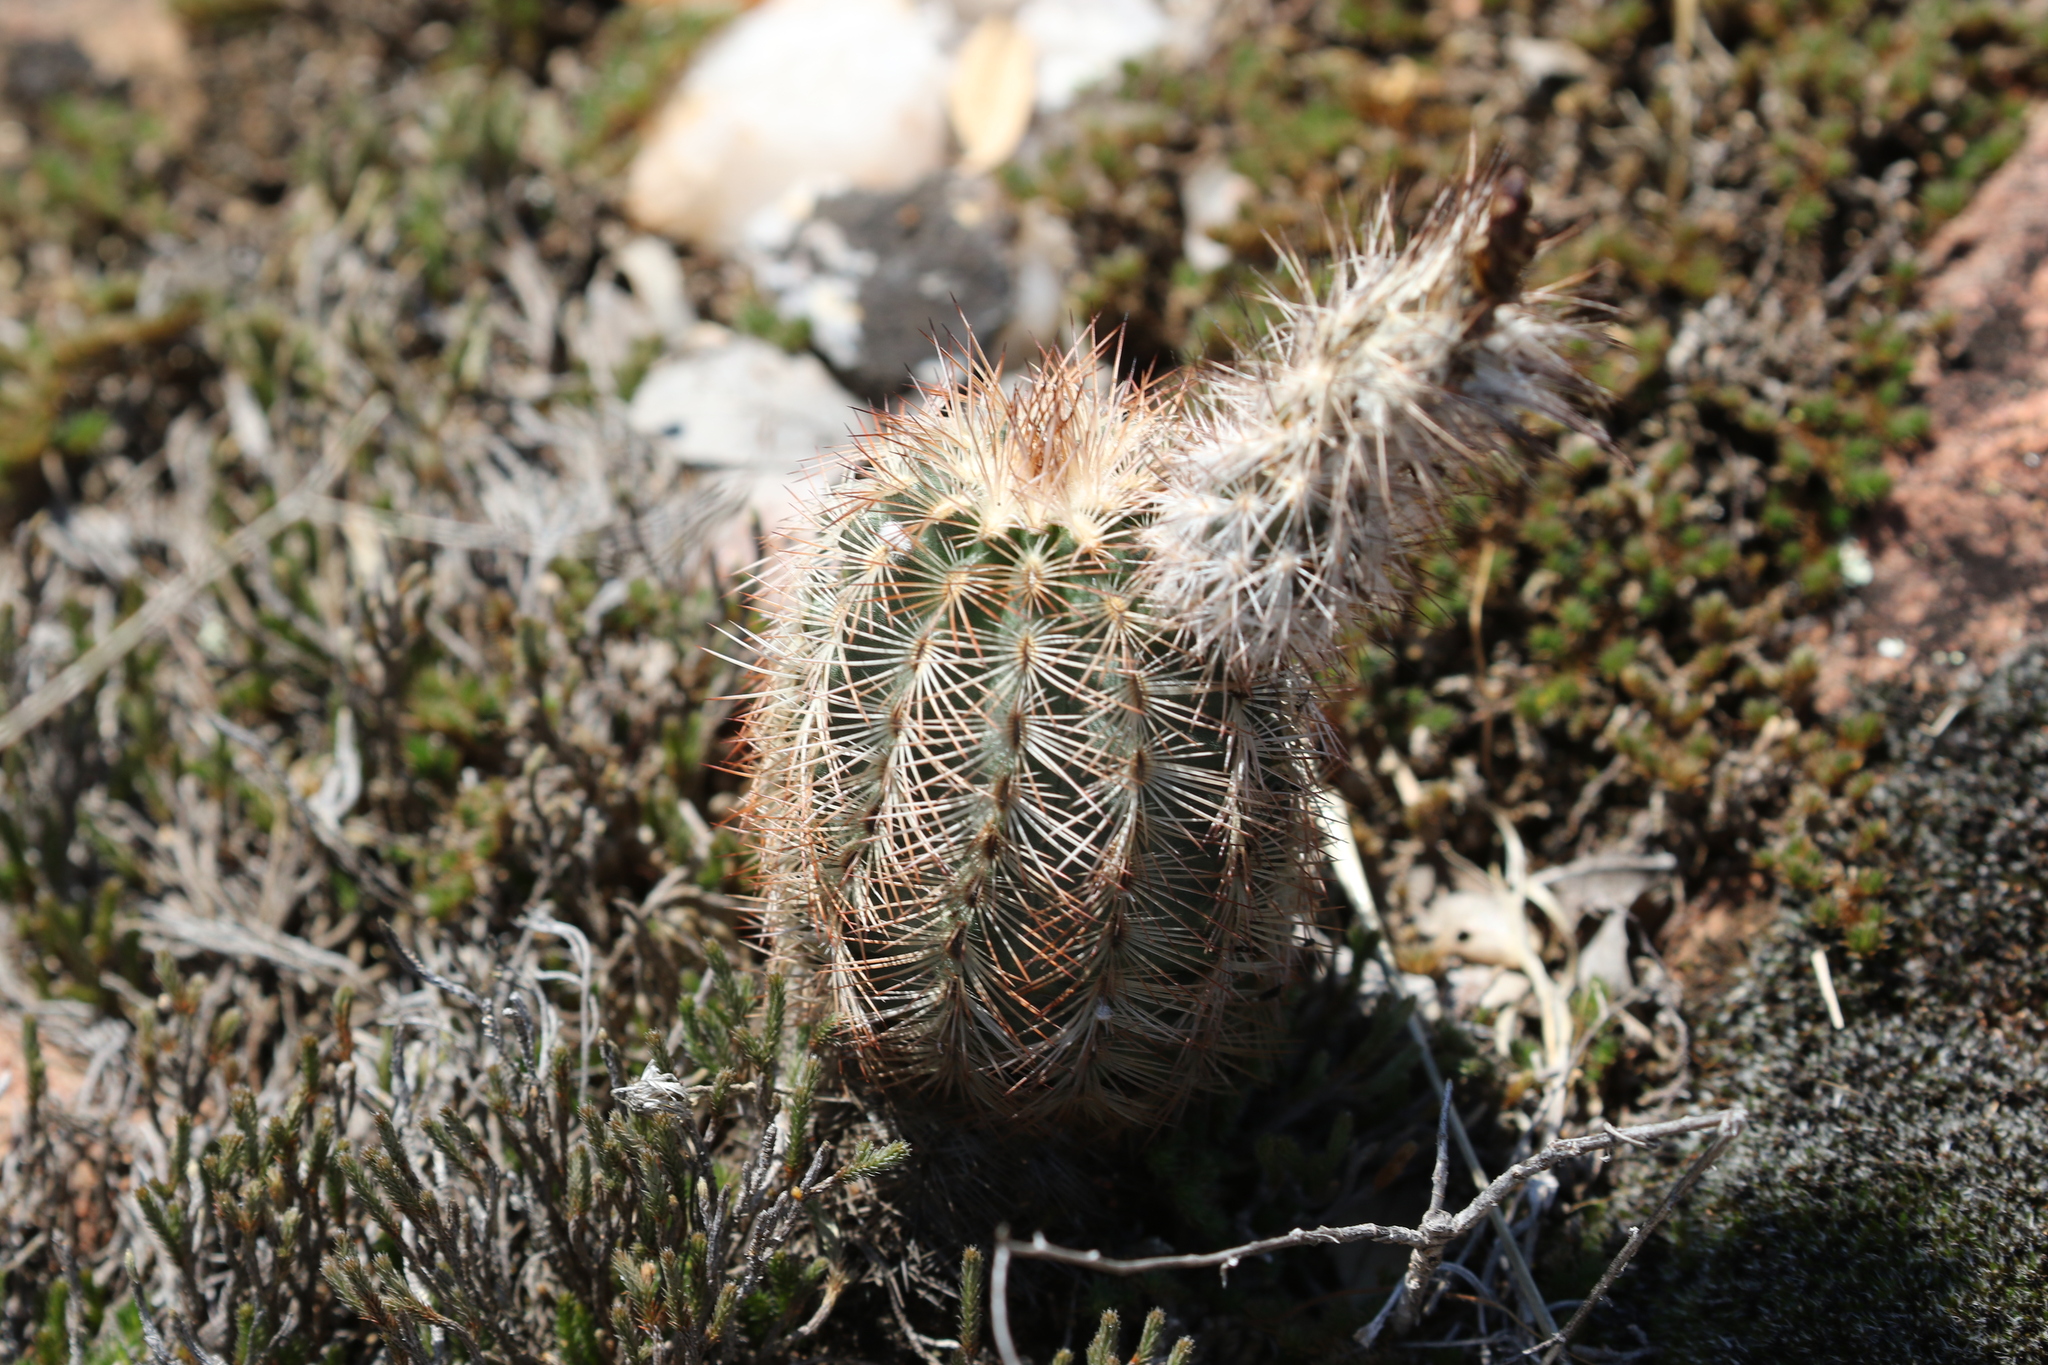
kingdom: Plantae
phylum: Tracheophyta
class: Magnoliopsida
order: Caryophyllales
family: Cactaceae
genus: Echinocereus
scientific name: Echinocereus reichenbachii
